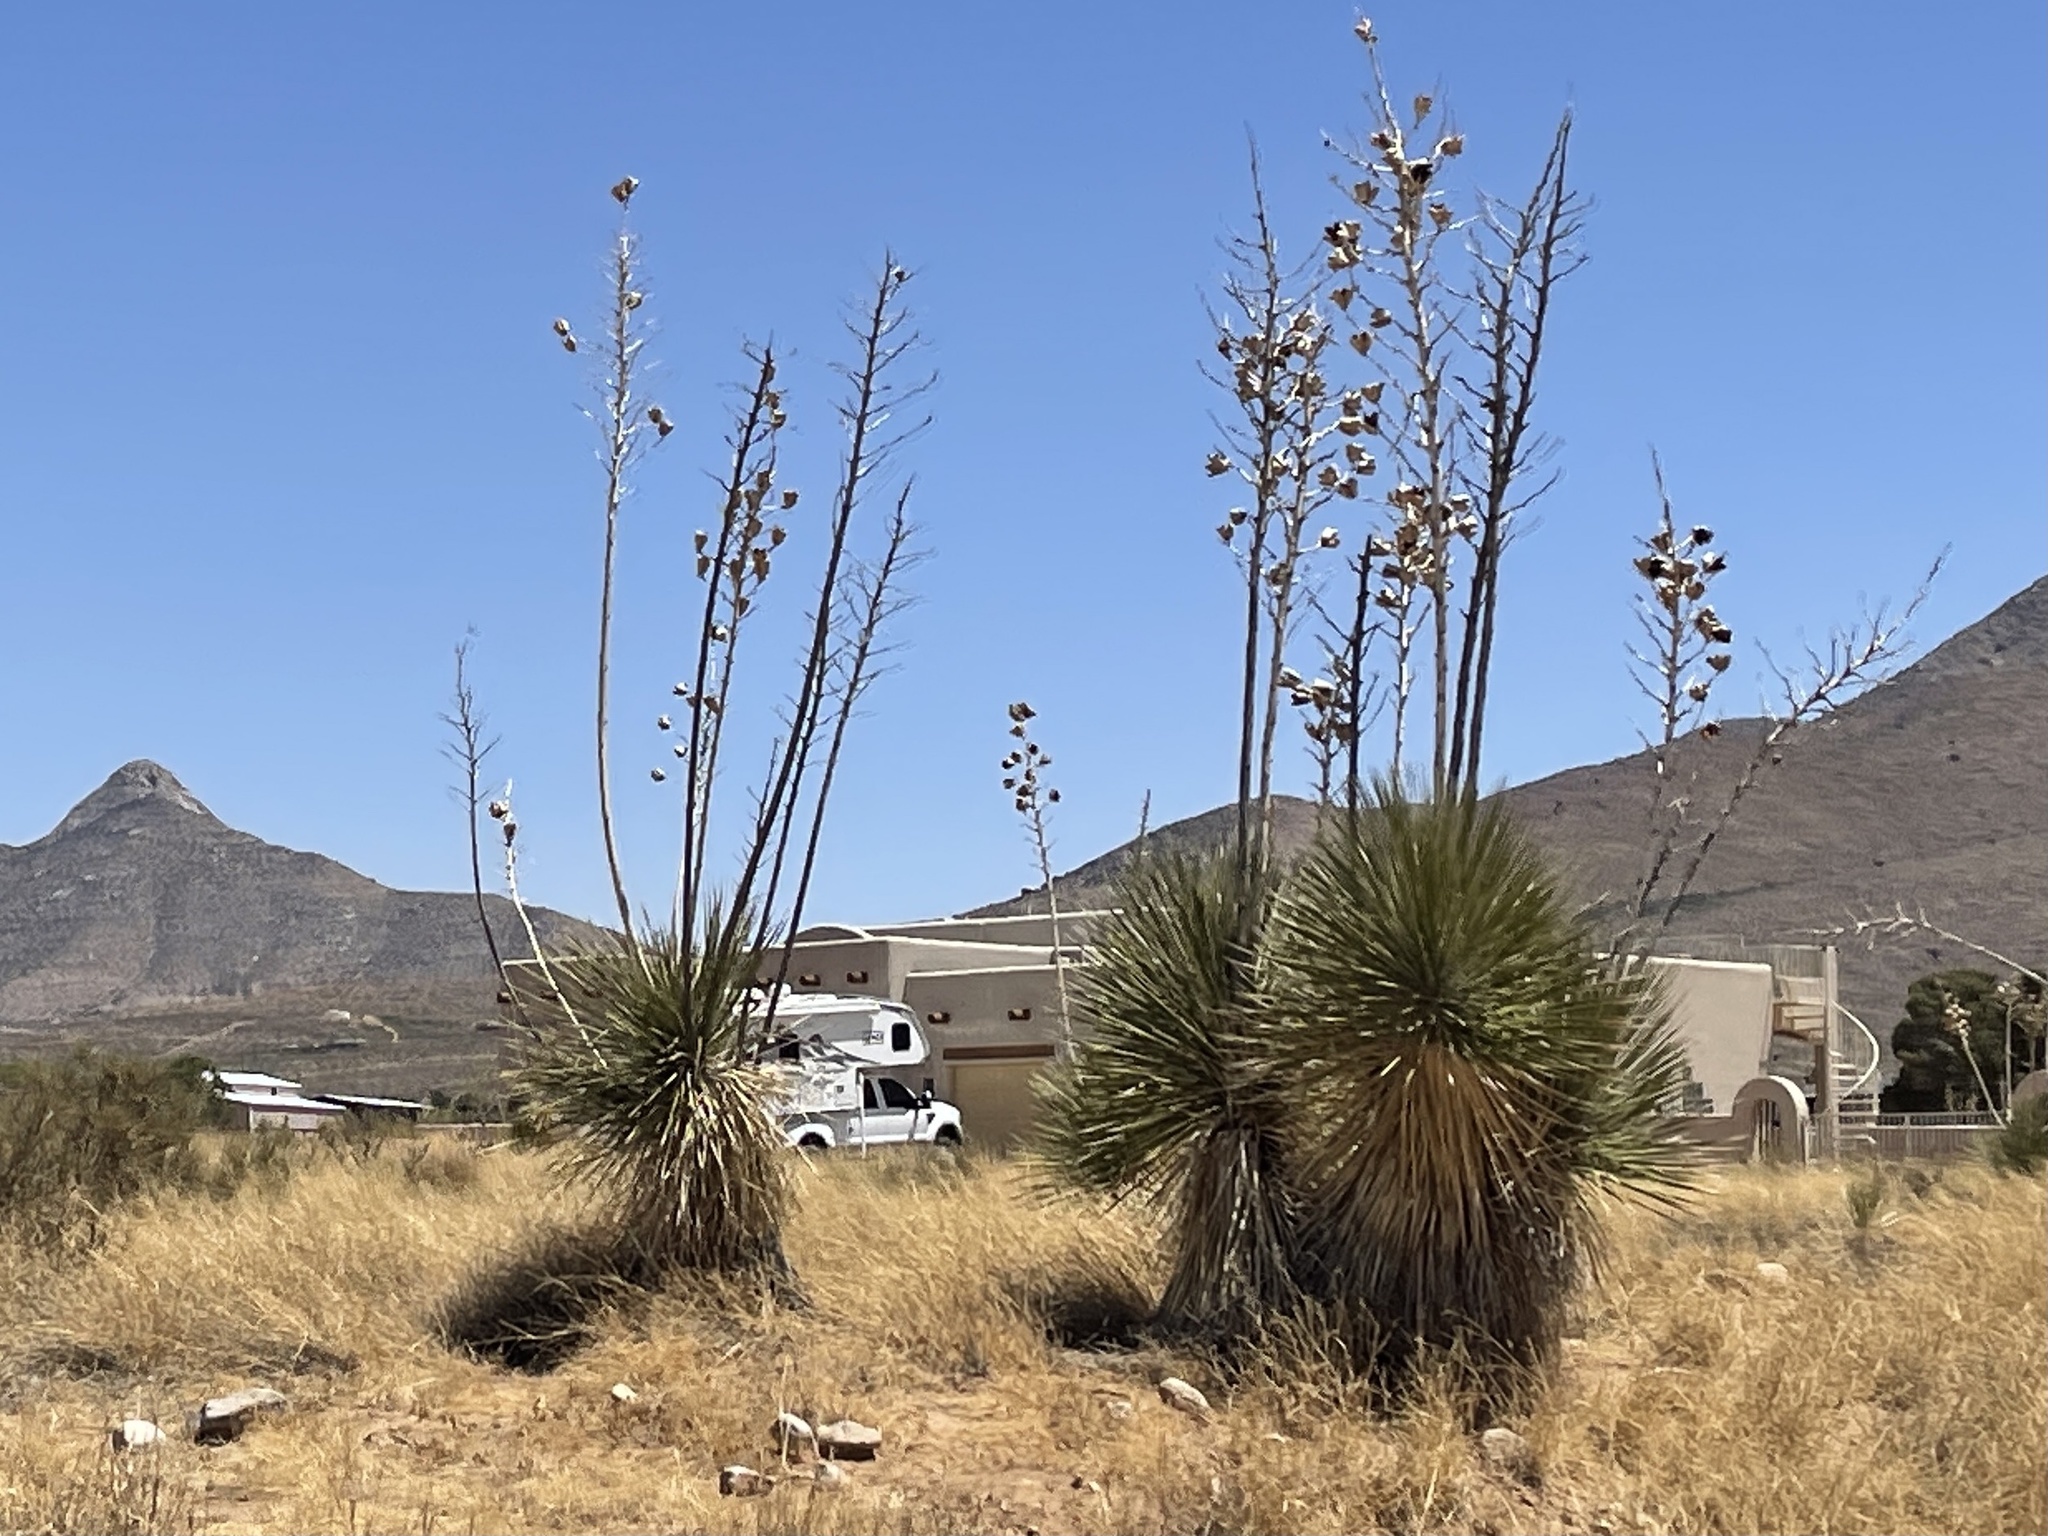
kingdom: Plantae
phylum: Tracheophyta
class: Liliopsida
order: Asparagales
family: Asparagaceae
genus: Yucca
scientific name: Yucca elata
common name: Palmella
